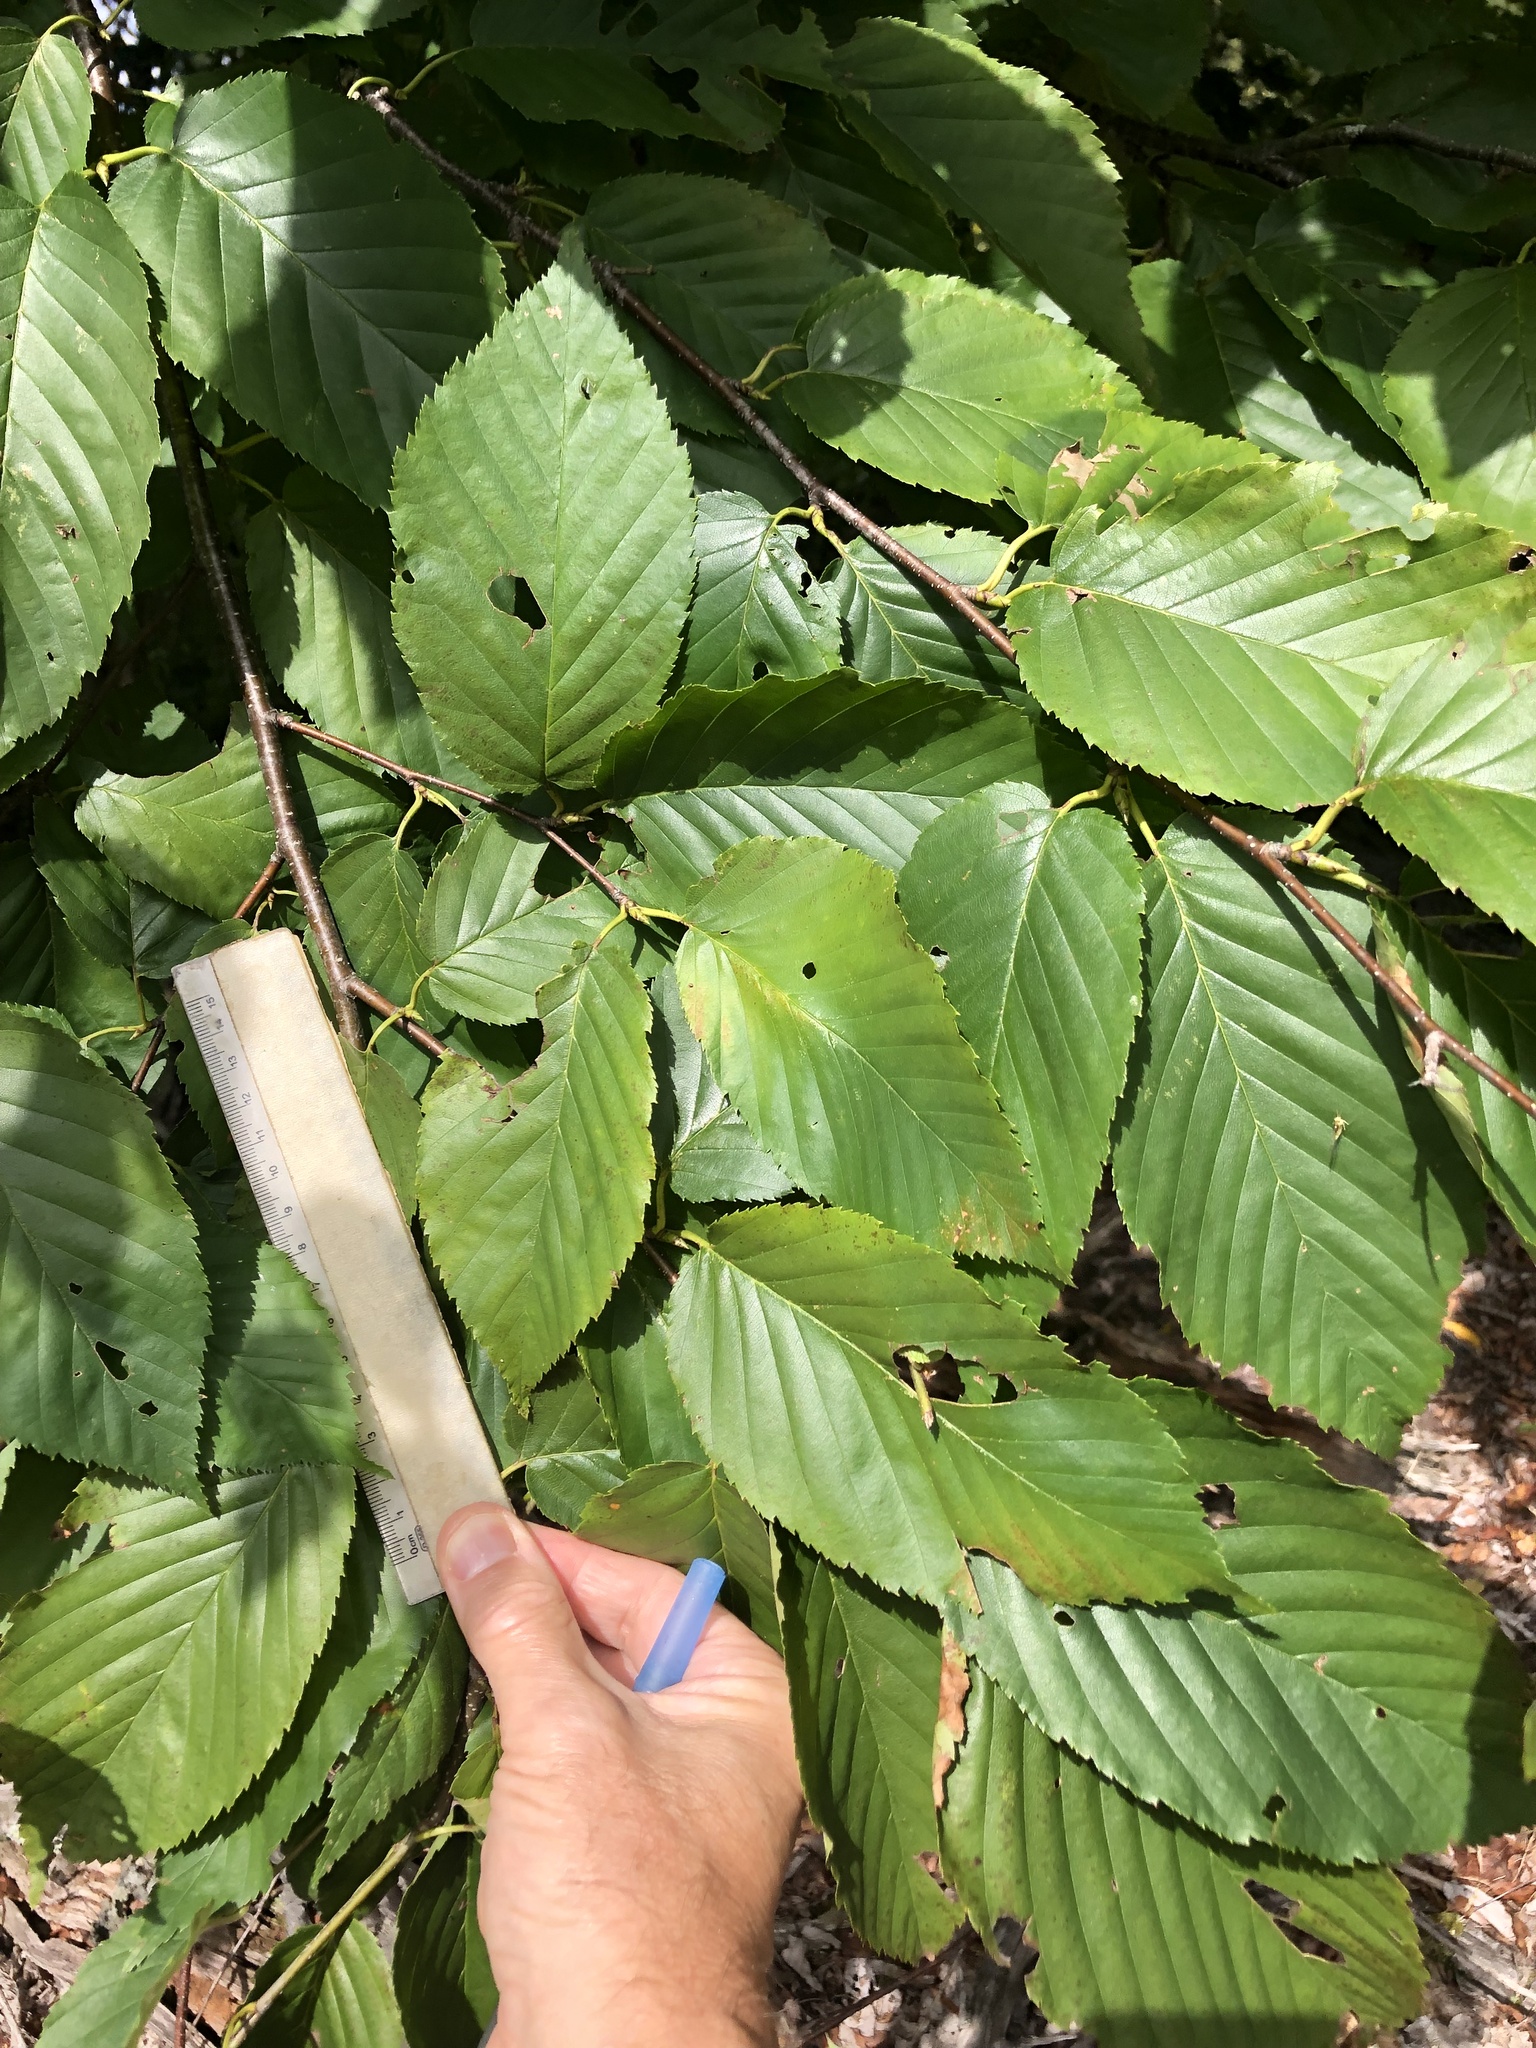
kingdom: Plantae
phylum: Tracheophyta
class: Magnoliopsida
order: Fagales
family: Betulaceae
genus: Betula
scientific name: Betula alleghaniensis
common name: Yellow birch
